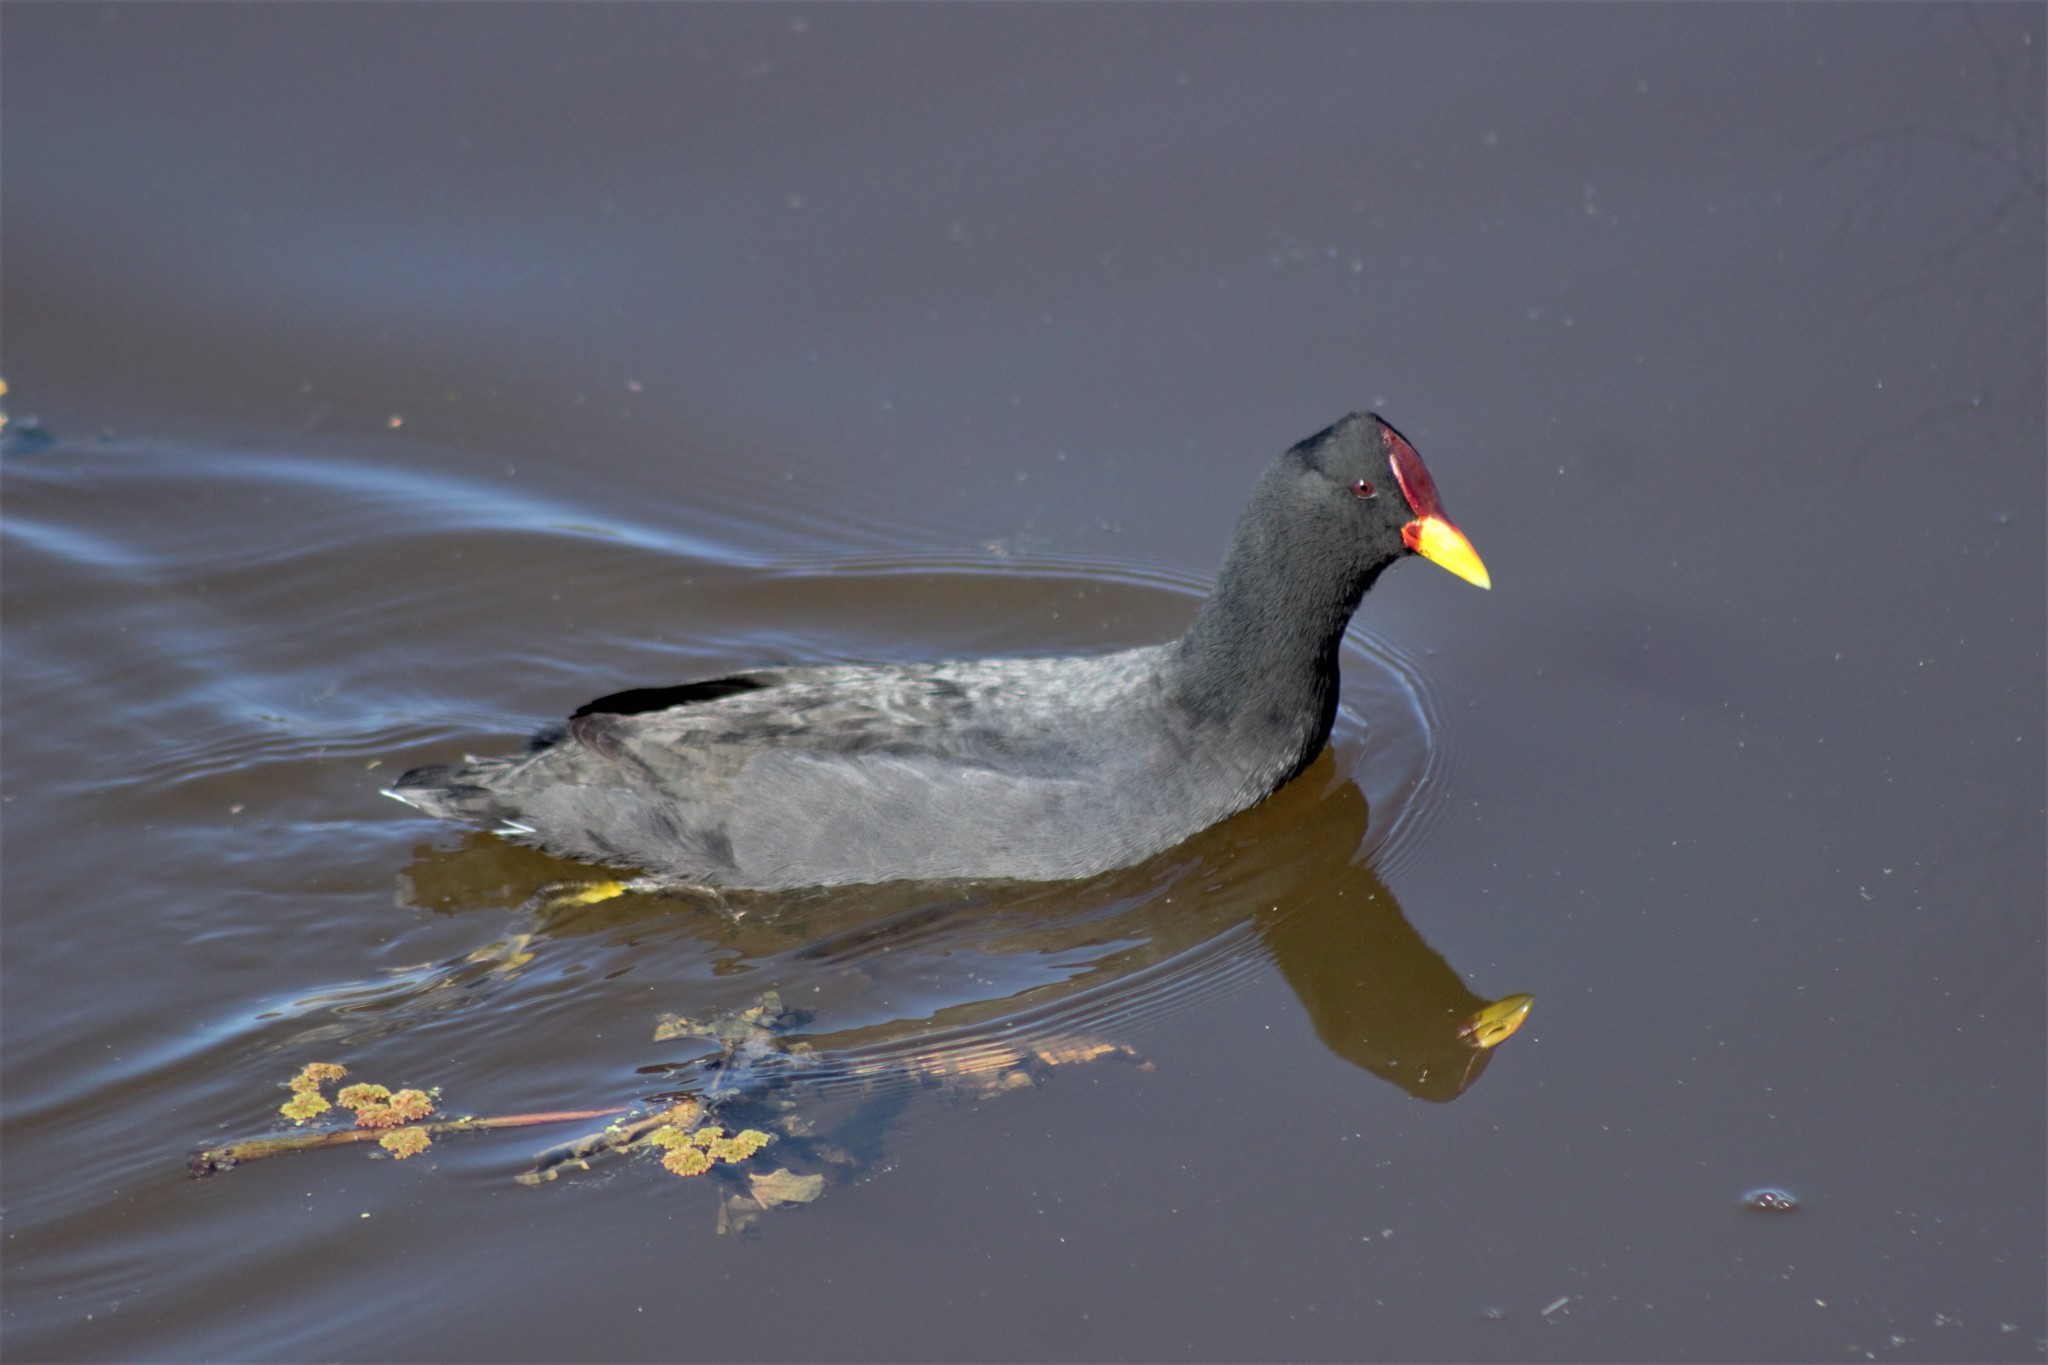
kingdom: Animalia
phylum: Chordata
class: Aves
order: Gruiformes
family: Rallidae
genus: Fulica
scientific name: Fulica rufifrons
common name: Red-fronted coot
